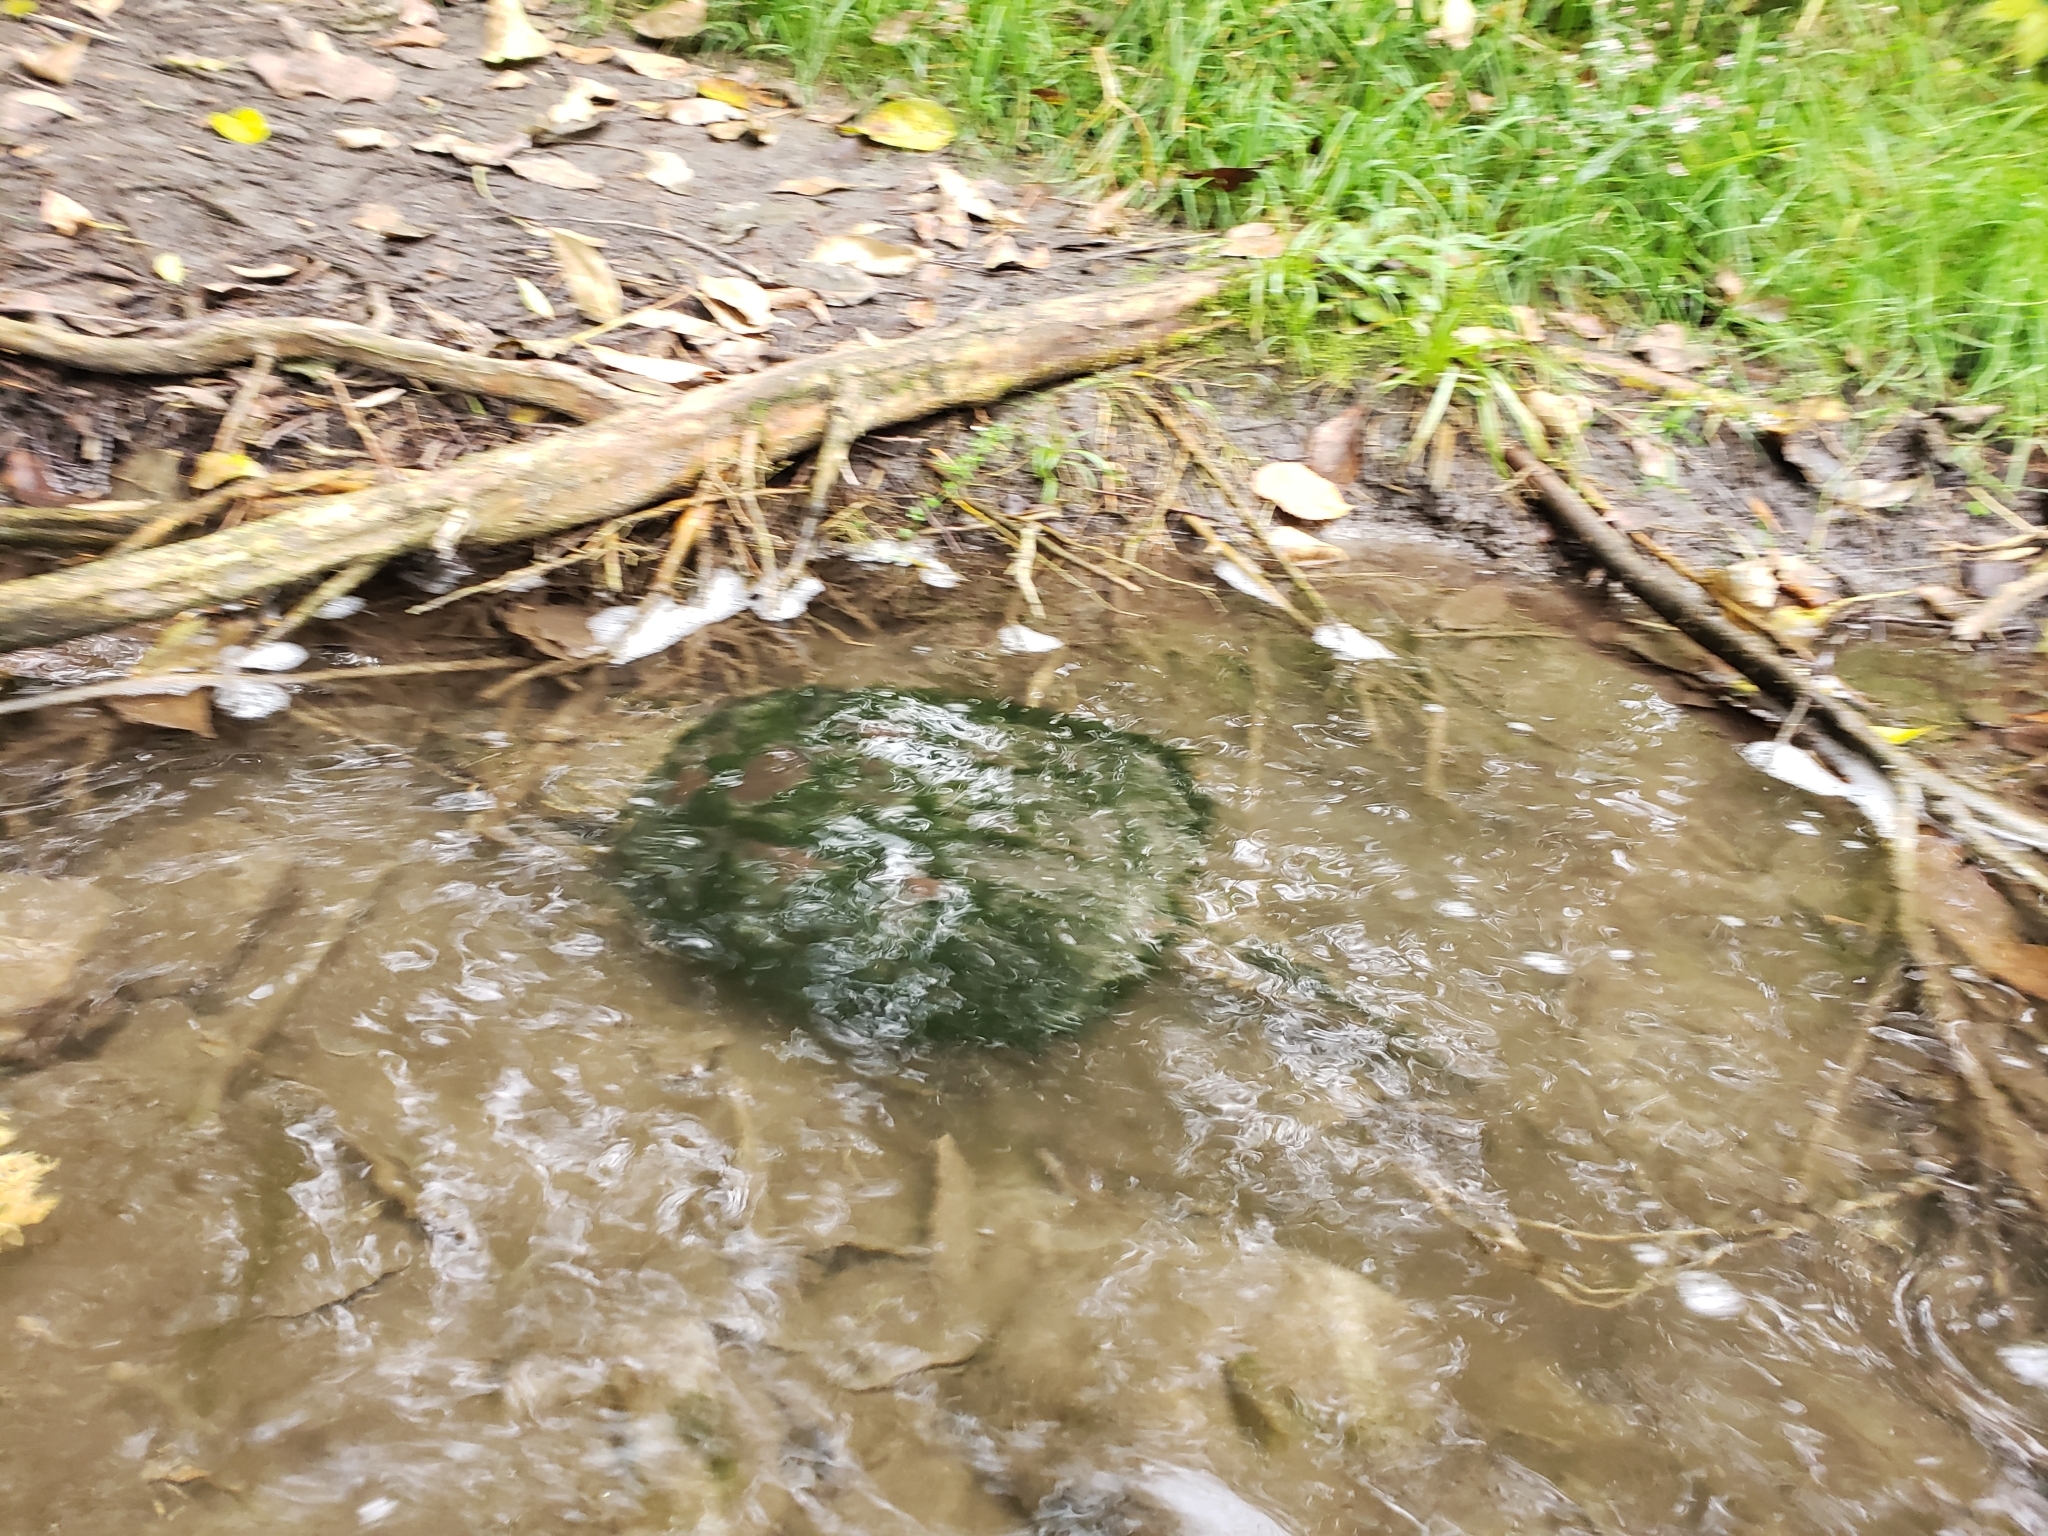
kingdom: Animalia
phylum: Chordata
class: Testudines
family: Chelydridae
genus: Chelydra
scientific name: Chelydra serpentina
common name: Common snapping turtle
